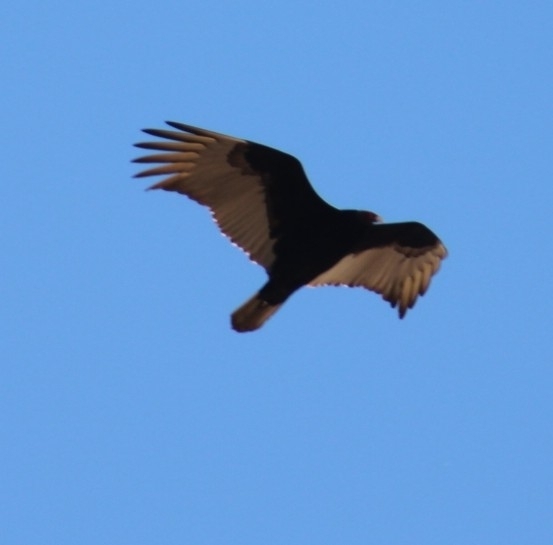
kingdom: Animalia
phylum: Chordata
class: Aves
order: Accipitriformes
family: Cathartidae
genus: Cathartes
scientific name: Cathartes aura
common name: Turkey vulture
